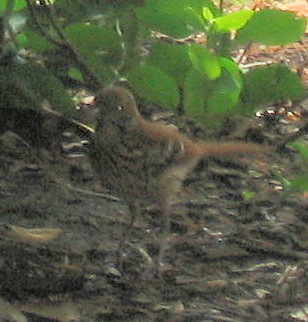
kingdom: Animalia
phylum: Chordata
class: Aves
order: Passeriformes
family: Mimidae
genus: Toxostoma
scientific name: Toxostoma rufum
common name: Brown thrasher
